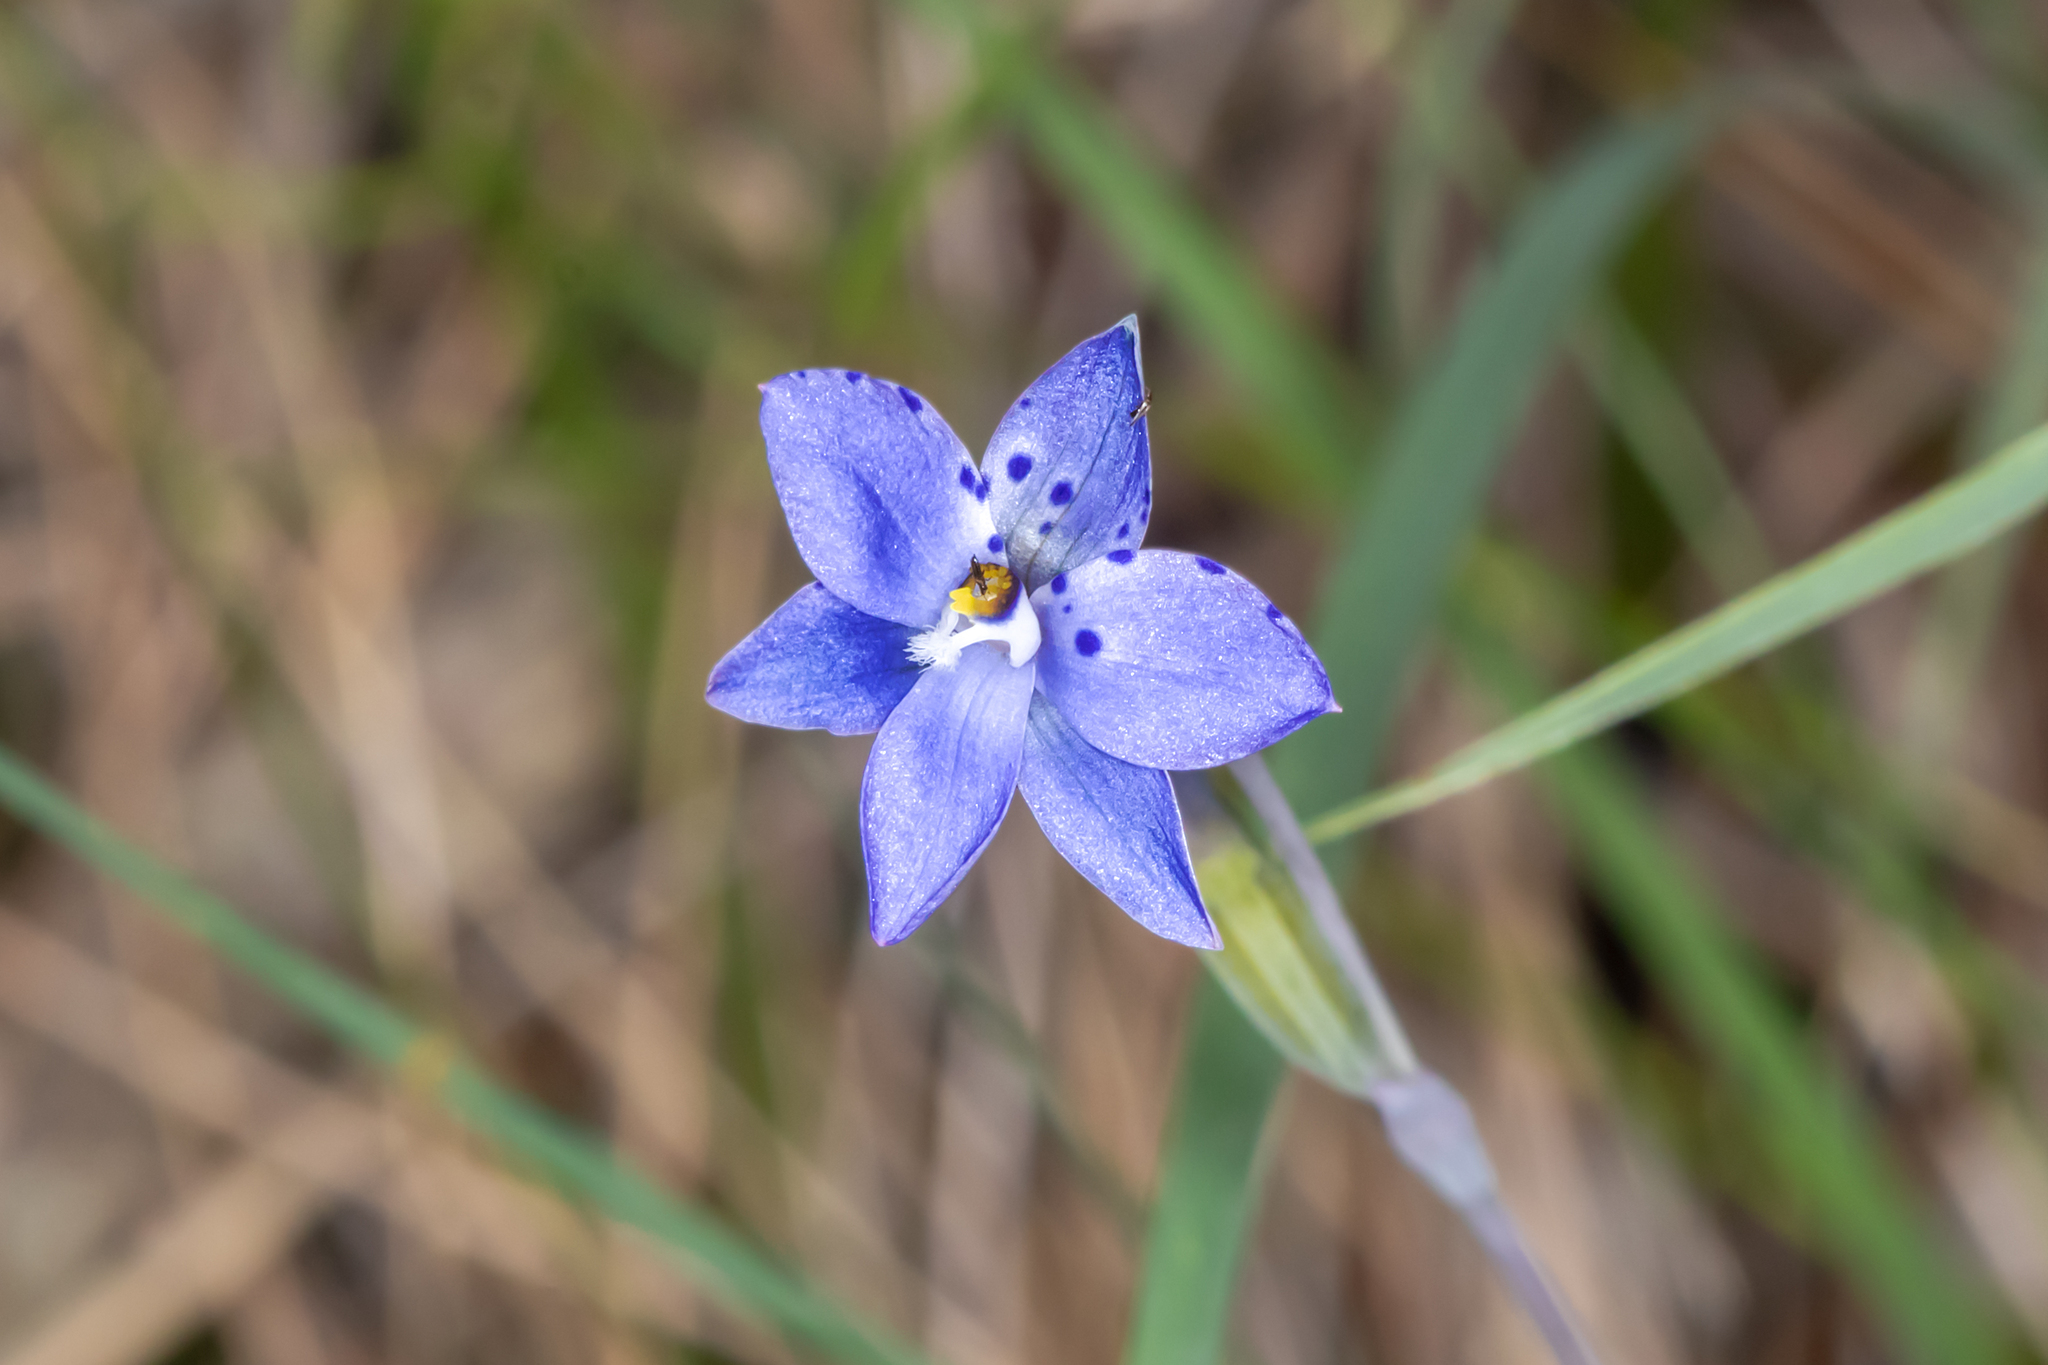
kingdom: Plantae
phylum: Tracheophyta
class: Liliopsida
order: Asparagales
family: Orchidaceae
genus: Thelymitra
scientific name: Thelymitra ixioides
